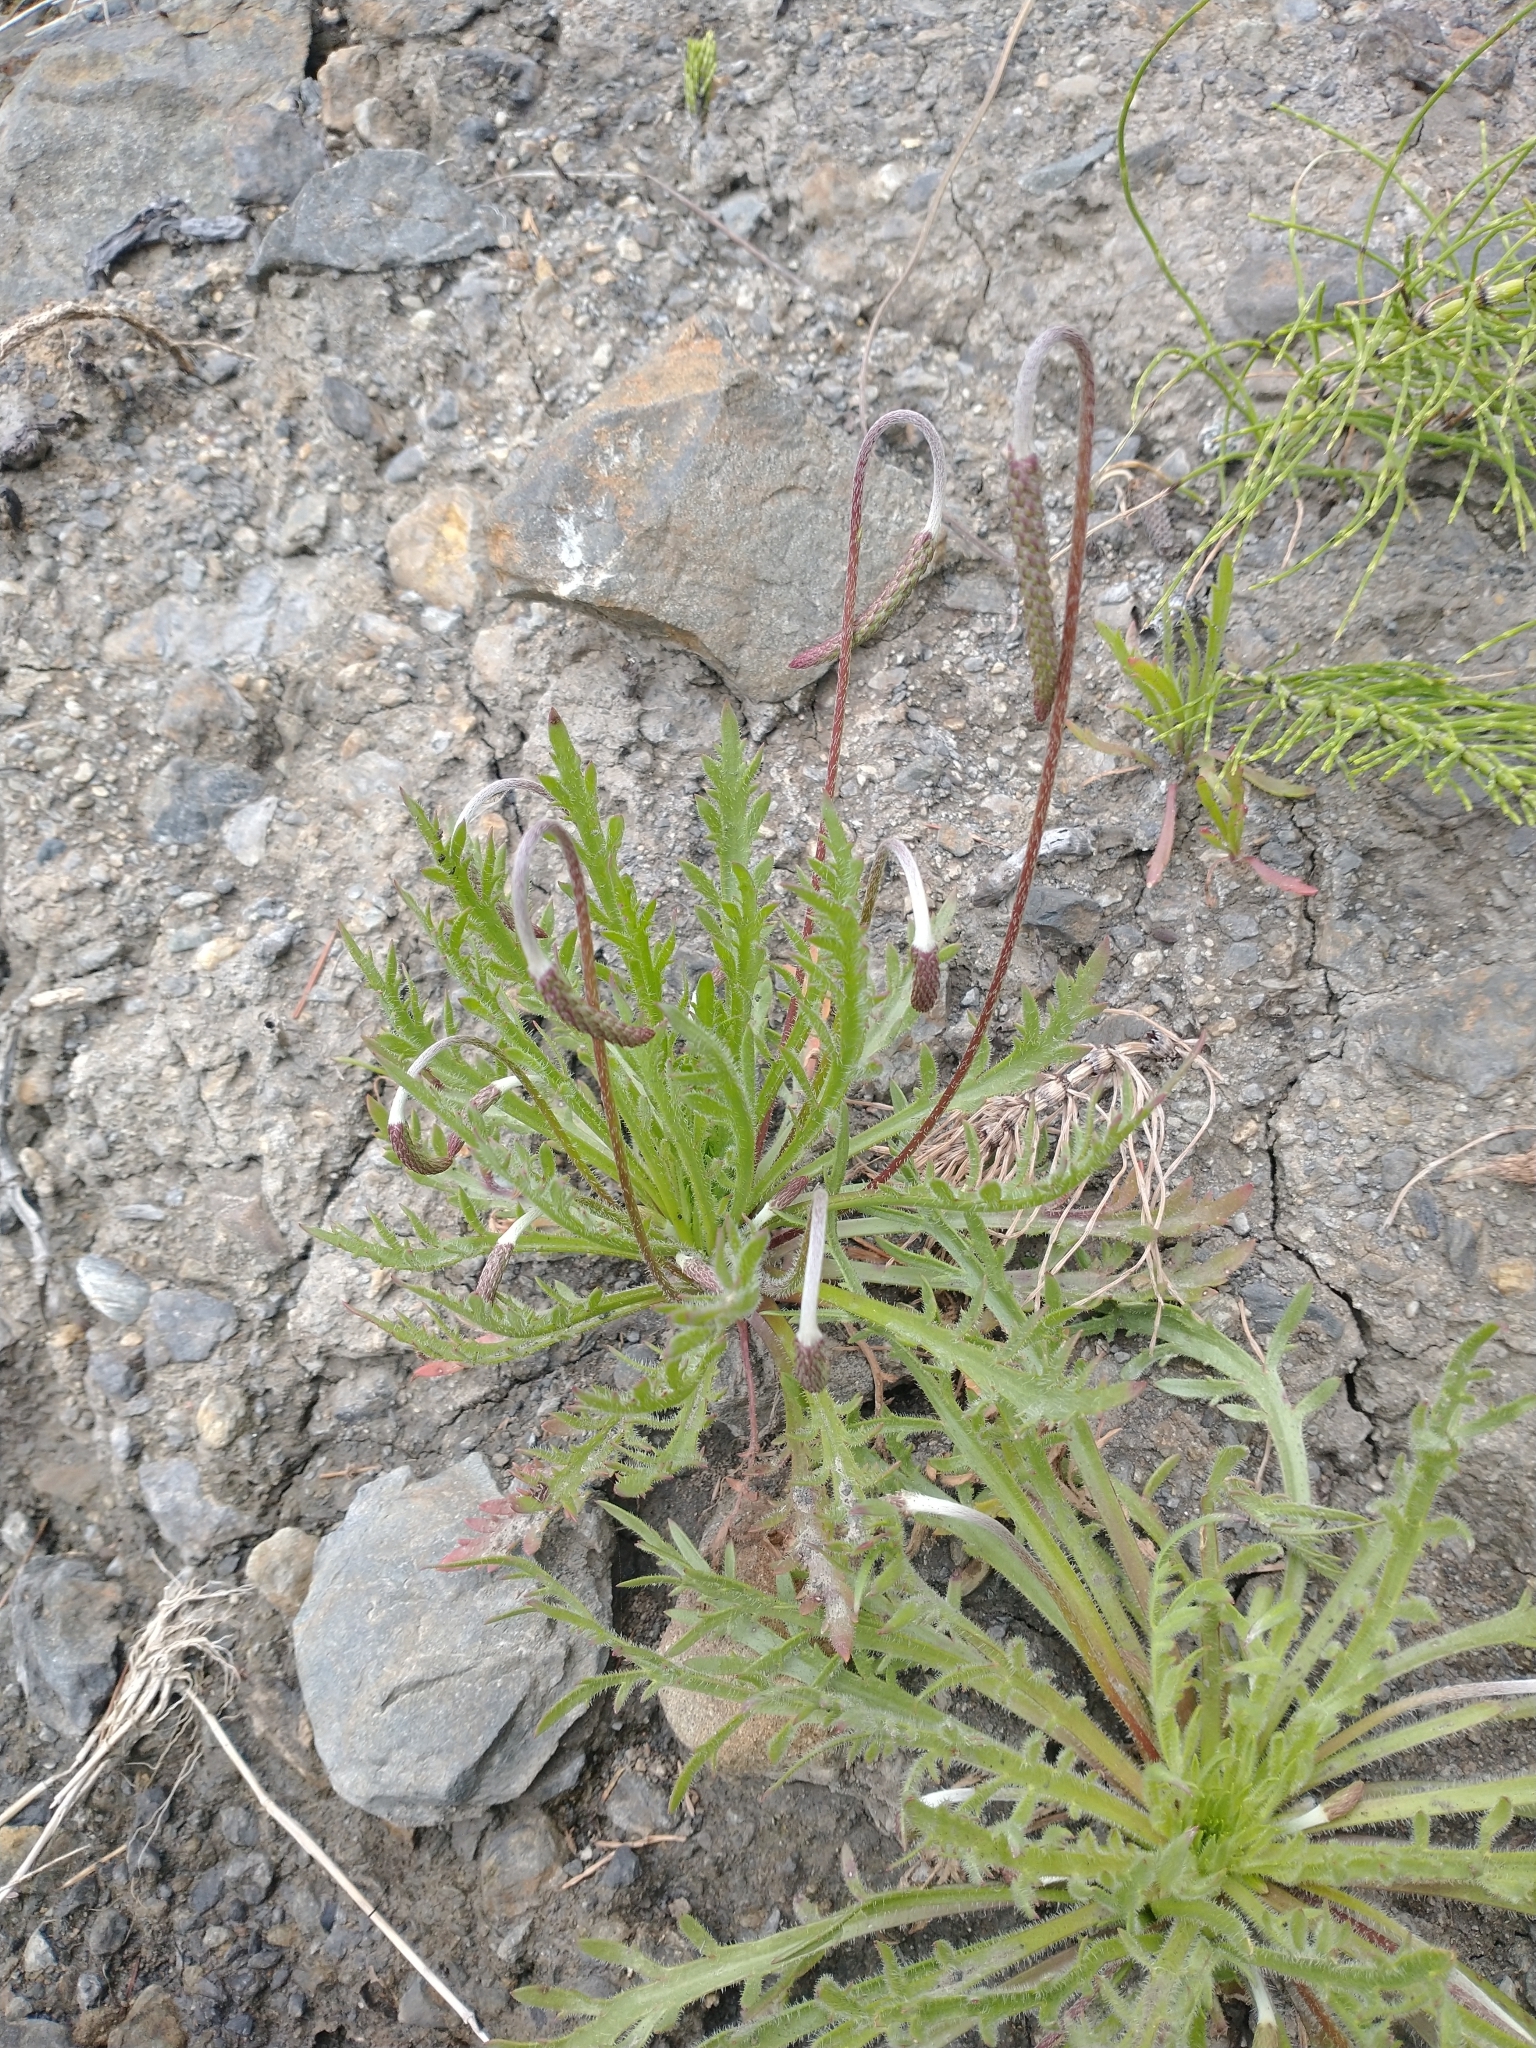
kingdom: Plantae
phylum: Tracheophyta
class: Magnoliopsida
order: Lamiales
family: Plantaginaceae
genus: Plantago
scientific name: Plantago coronopus
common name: Buck's-horn plantain
